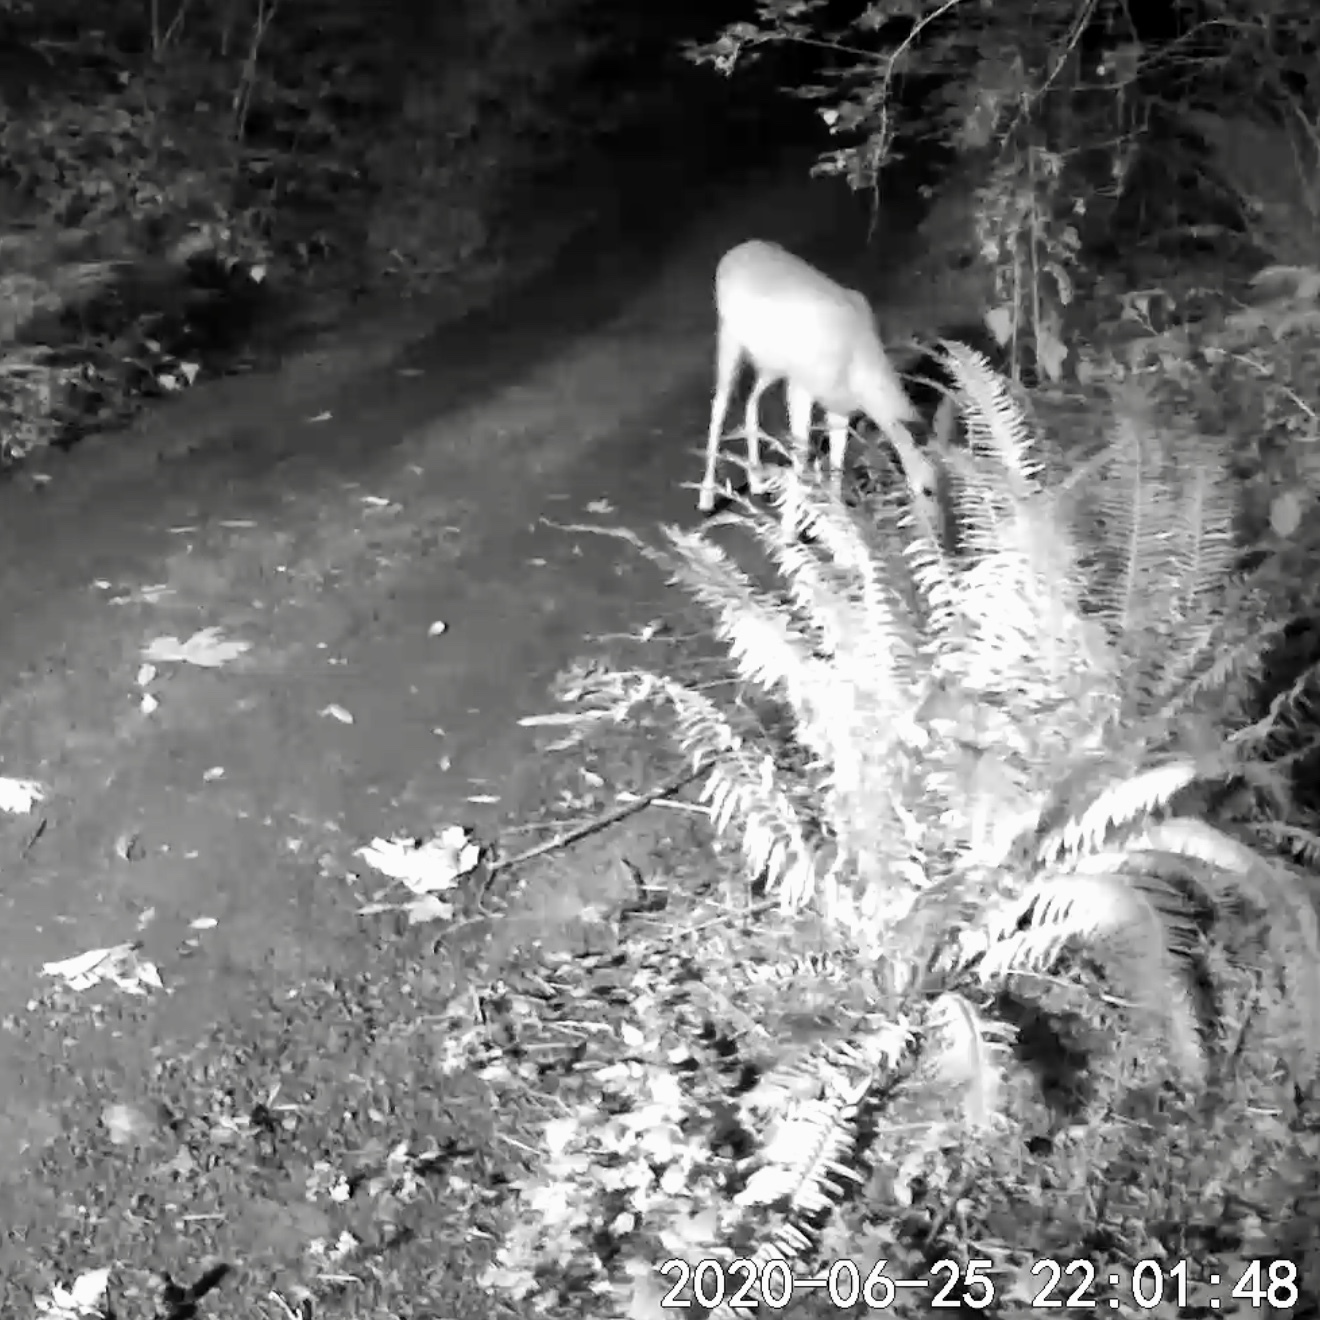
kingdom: Animalia
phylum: Chordata
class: Mammalia
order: Artiodactyla
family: Cervidae
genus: Odocoileus
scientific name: Odocoileus hemionus
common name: Mule deer
